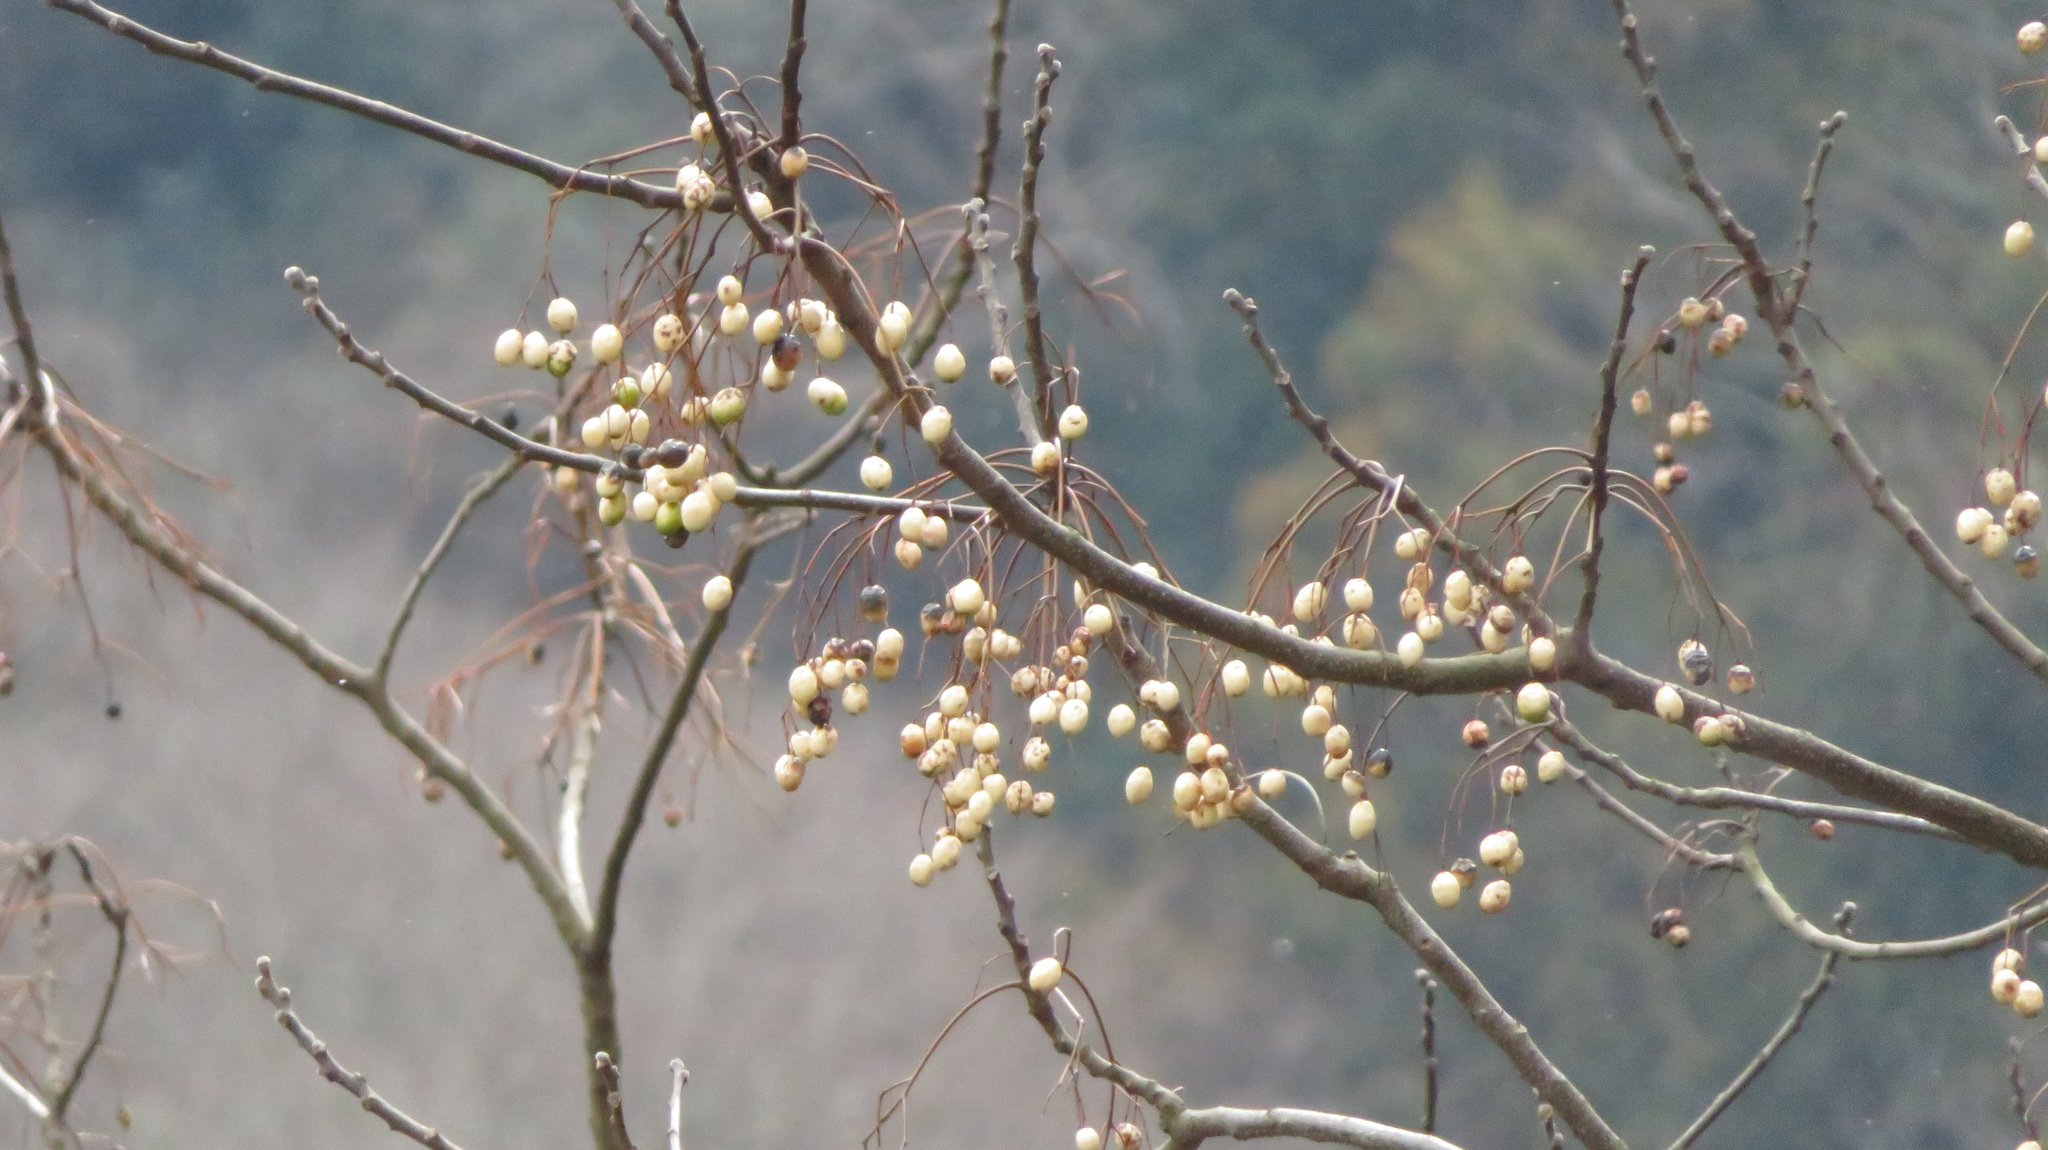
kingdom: Plantae
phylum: Tracheophyta
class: Magnoliopsida
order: Sapindales
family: Meliaceae
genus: Melia
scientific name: Melia azedarach
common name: Chinaberrytree
